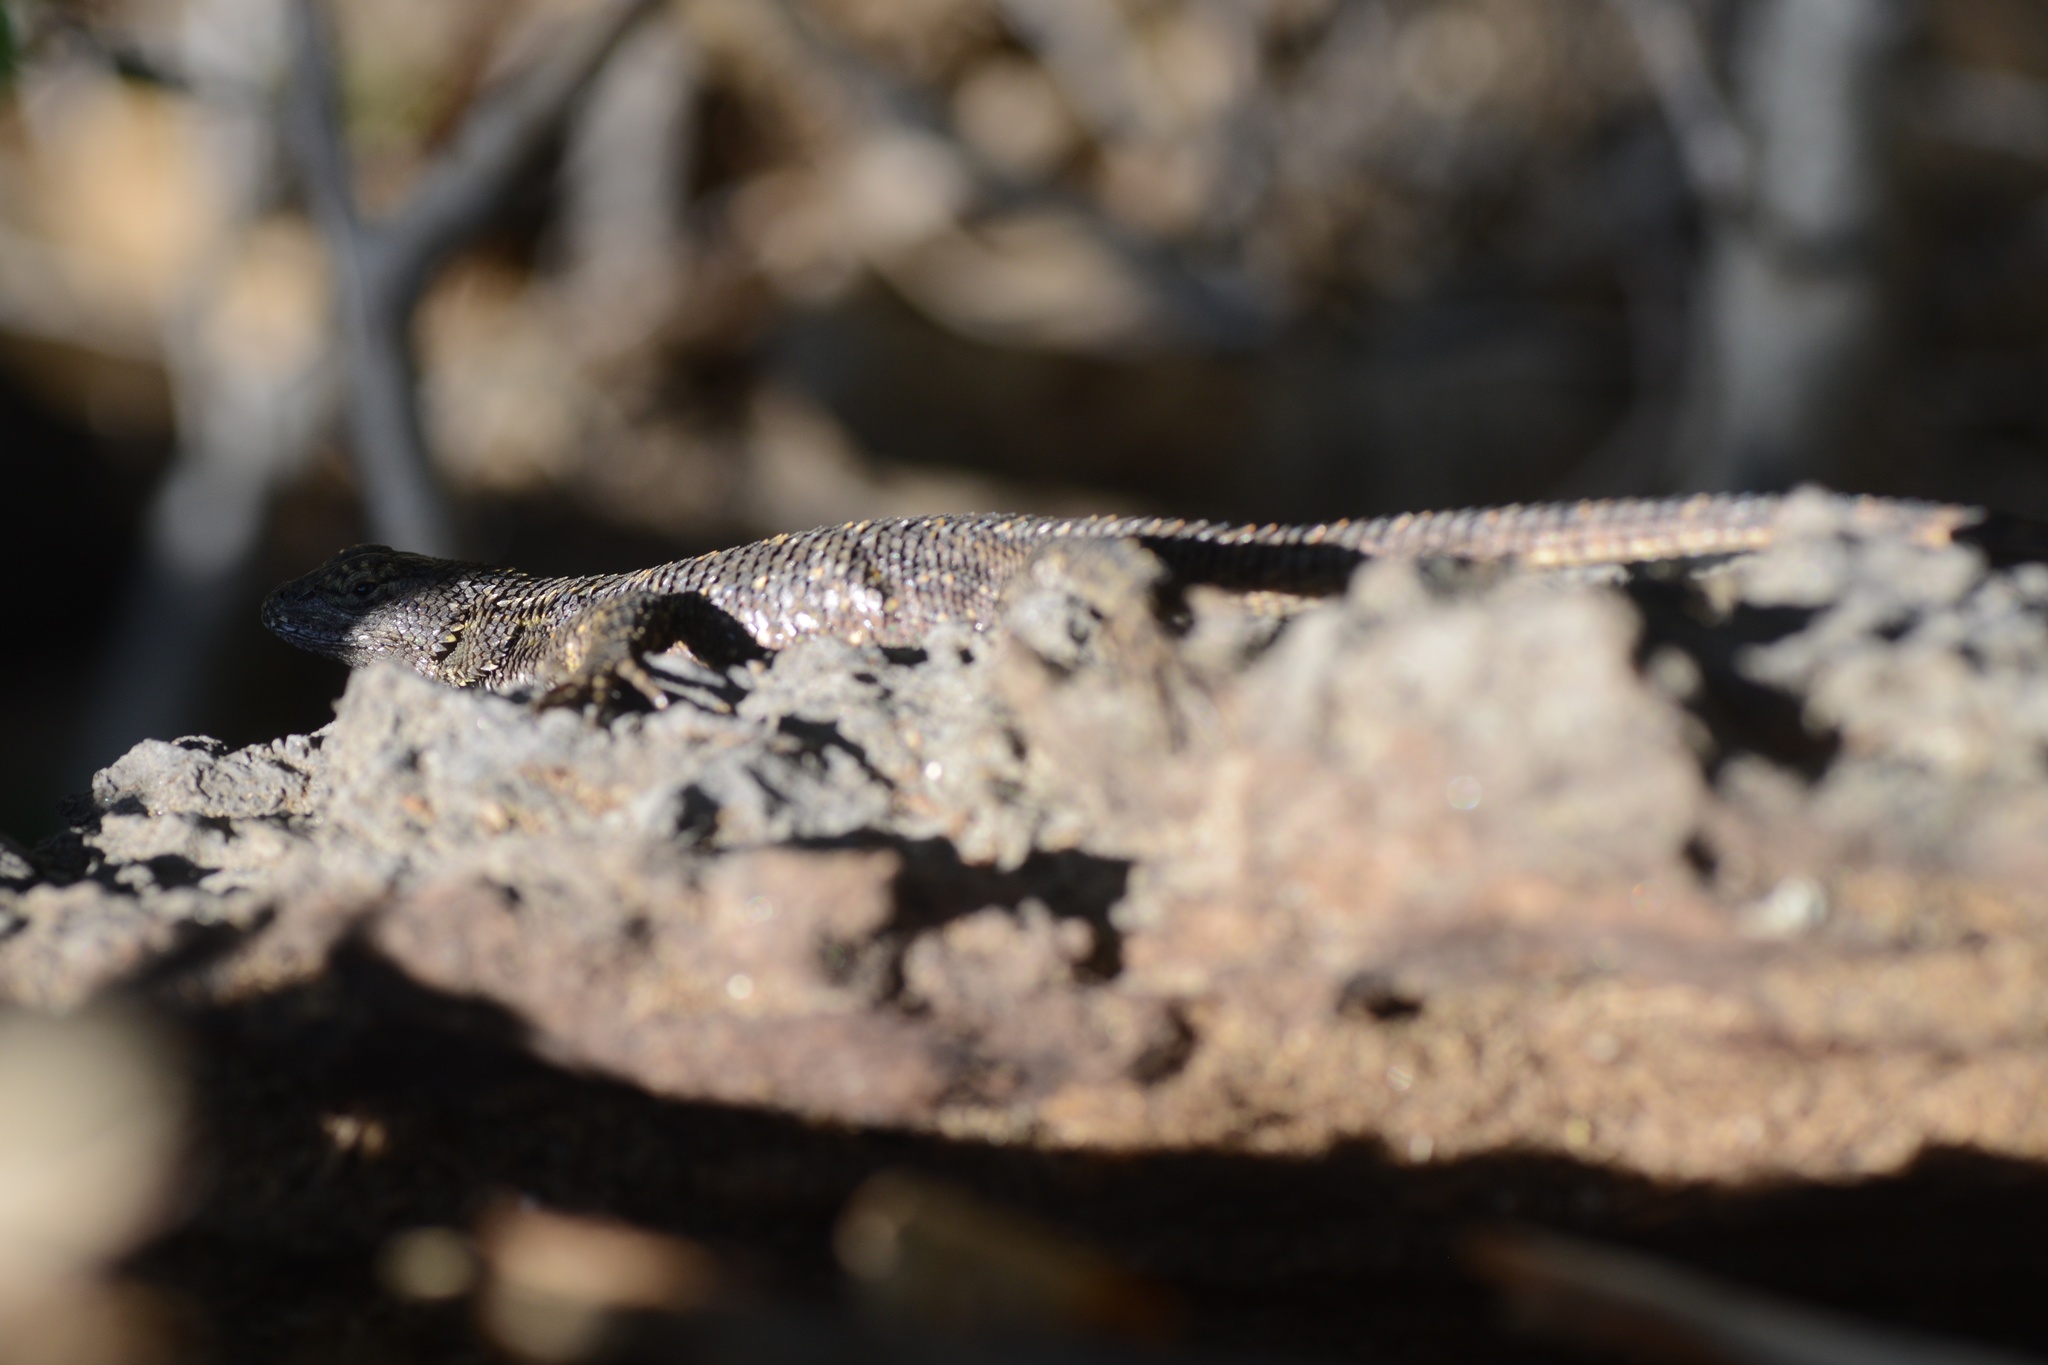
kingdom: Animalia
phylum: Chordata
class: Squamata
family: Phrynosomatidae
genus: Sceloporus
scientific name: Sceloporus occidentalis
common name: Western fence lizard
